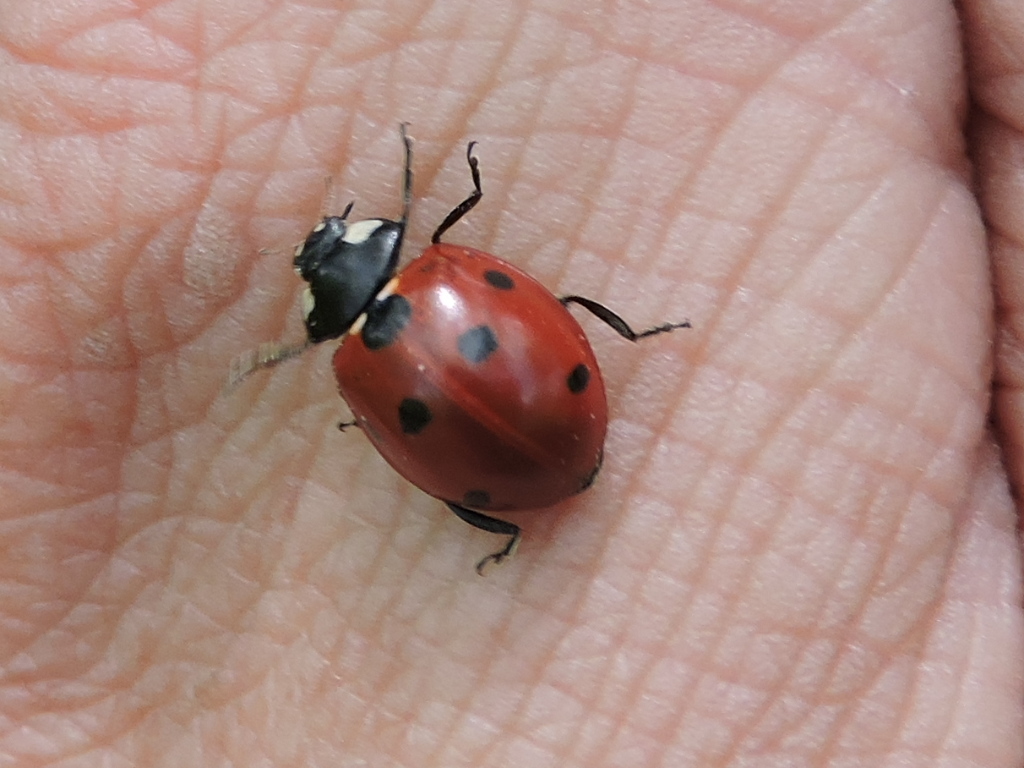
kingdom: Animalia
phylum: Arthropoda
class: Insecta
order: Coleoptera
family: Coccinellidae
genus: Coccinella
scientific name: Coccinella septempunctata
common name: Sevenspotted lady beetle
